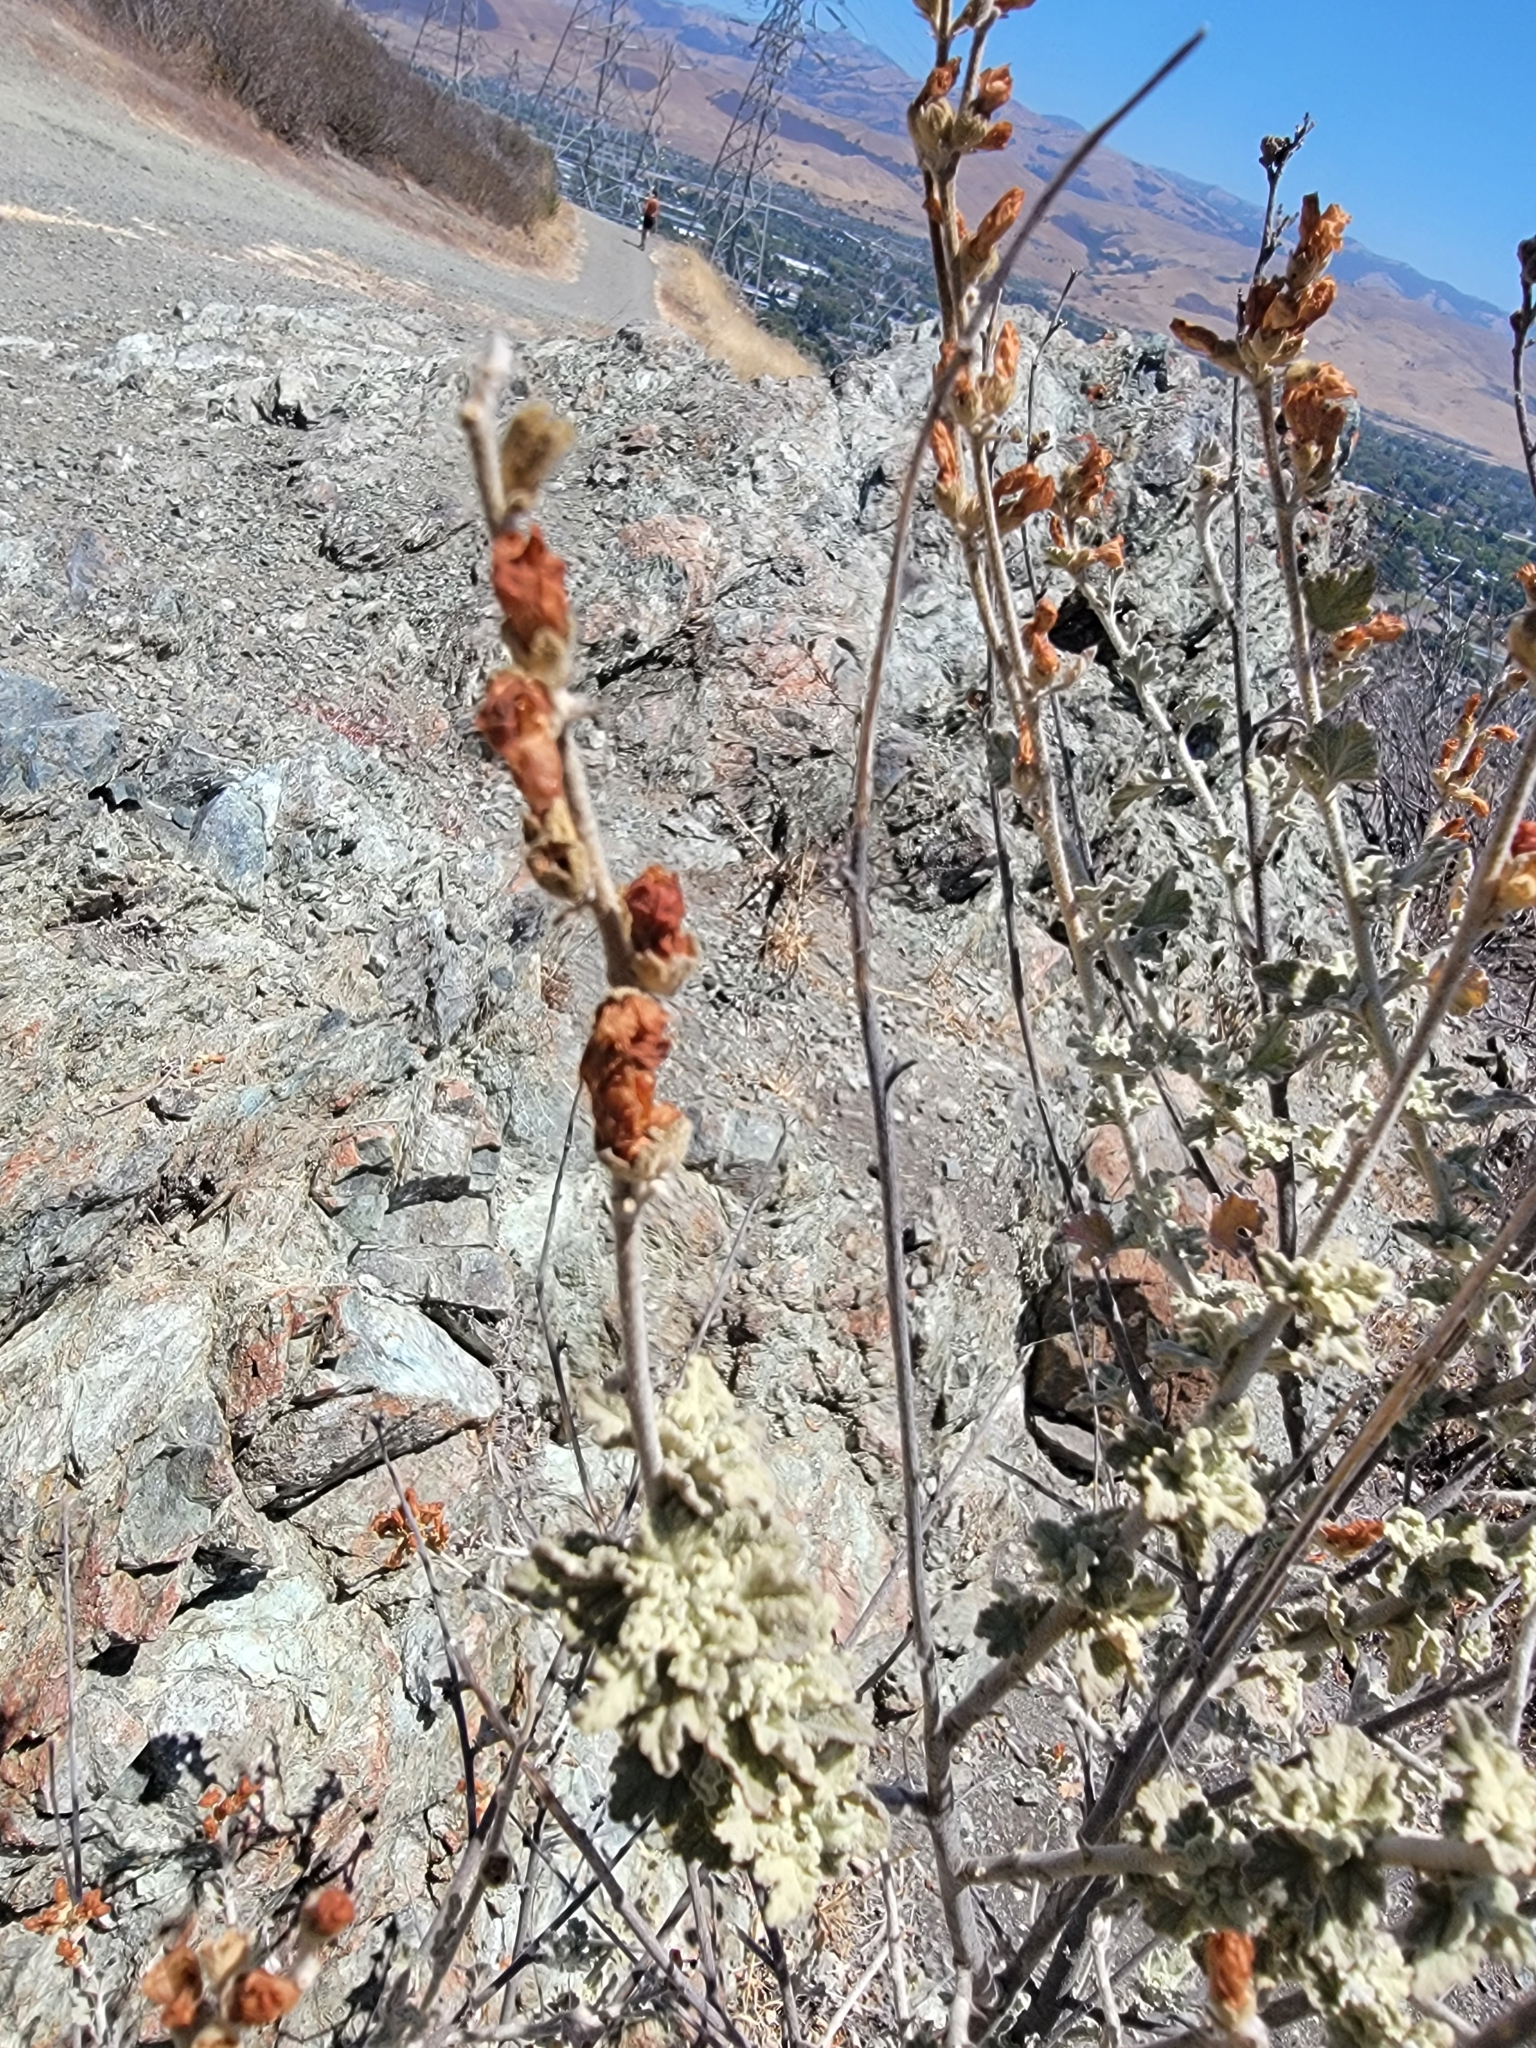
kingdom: Plantae
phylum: Tracheophyta
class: Magnoliopsida
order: Malvales
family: Malvaceae
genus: Malacothamnus
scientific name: Malacothamnus fasciculatus
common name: Sant cruz island bush-mallow
